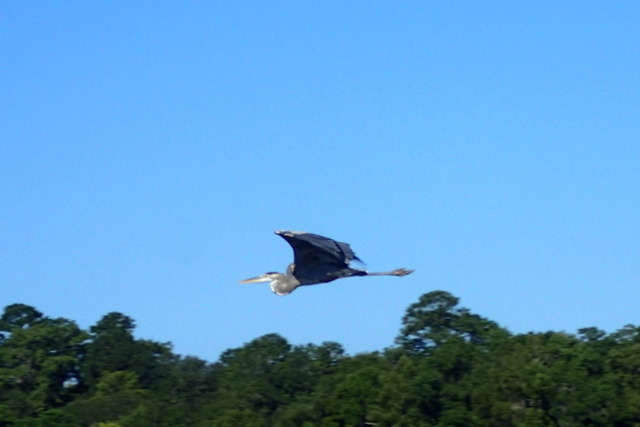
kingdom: Animalia
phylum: Chordata
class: Aves
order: Pelecaniformes
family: Ardeidae
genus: Ardea
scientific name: Ardea herodias
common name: Great blue heron
